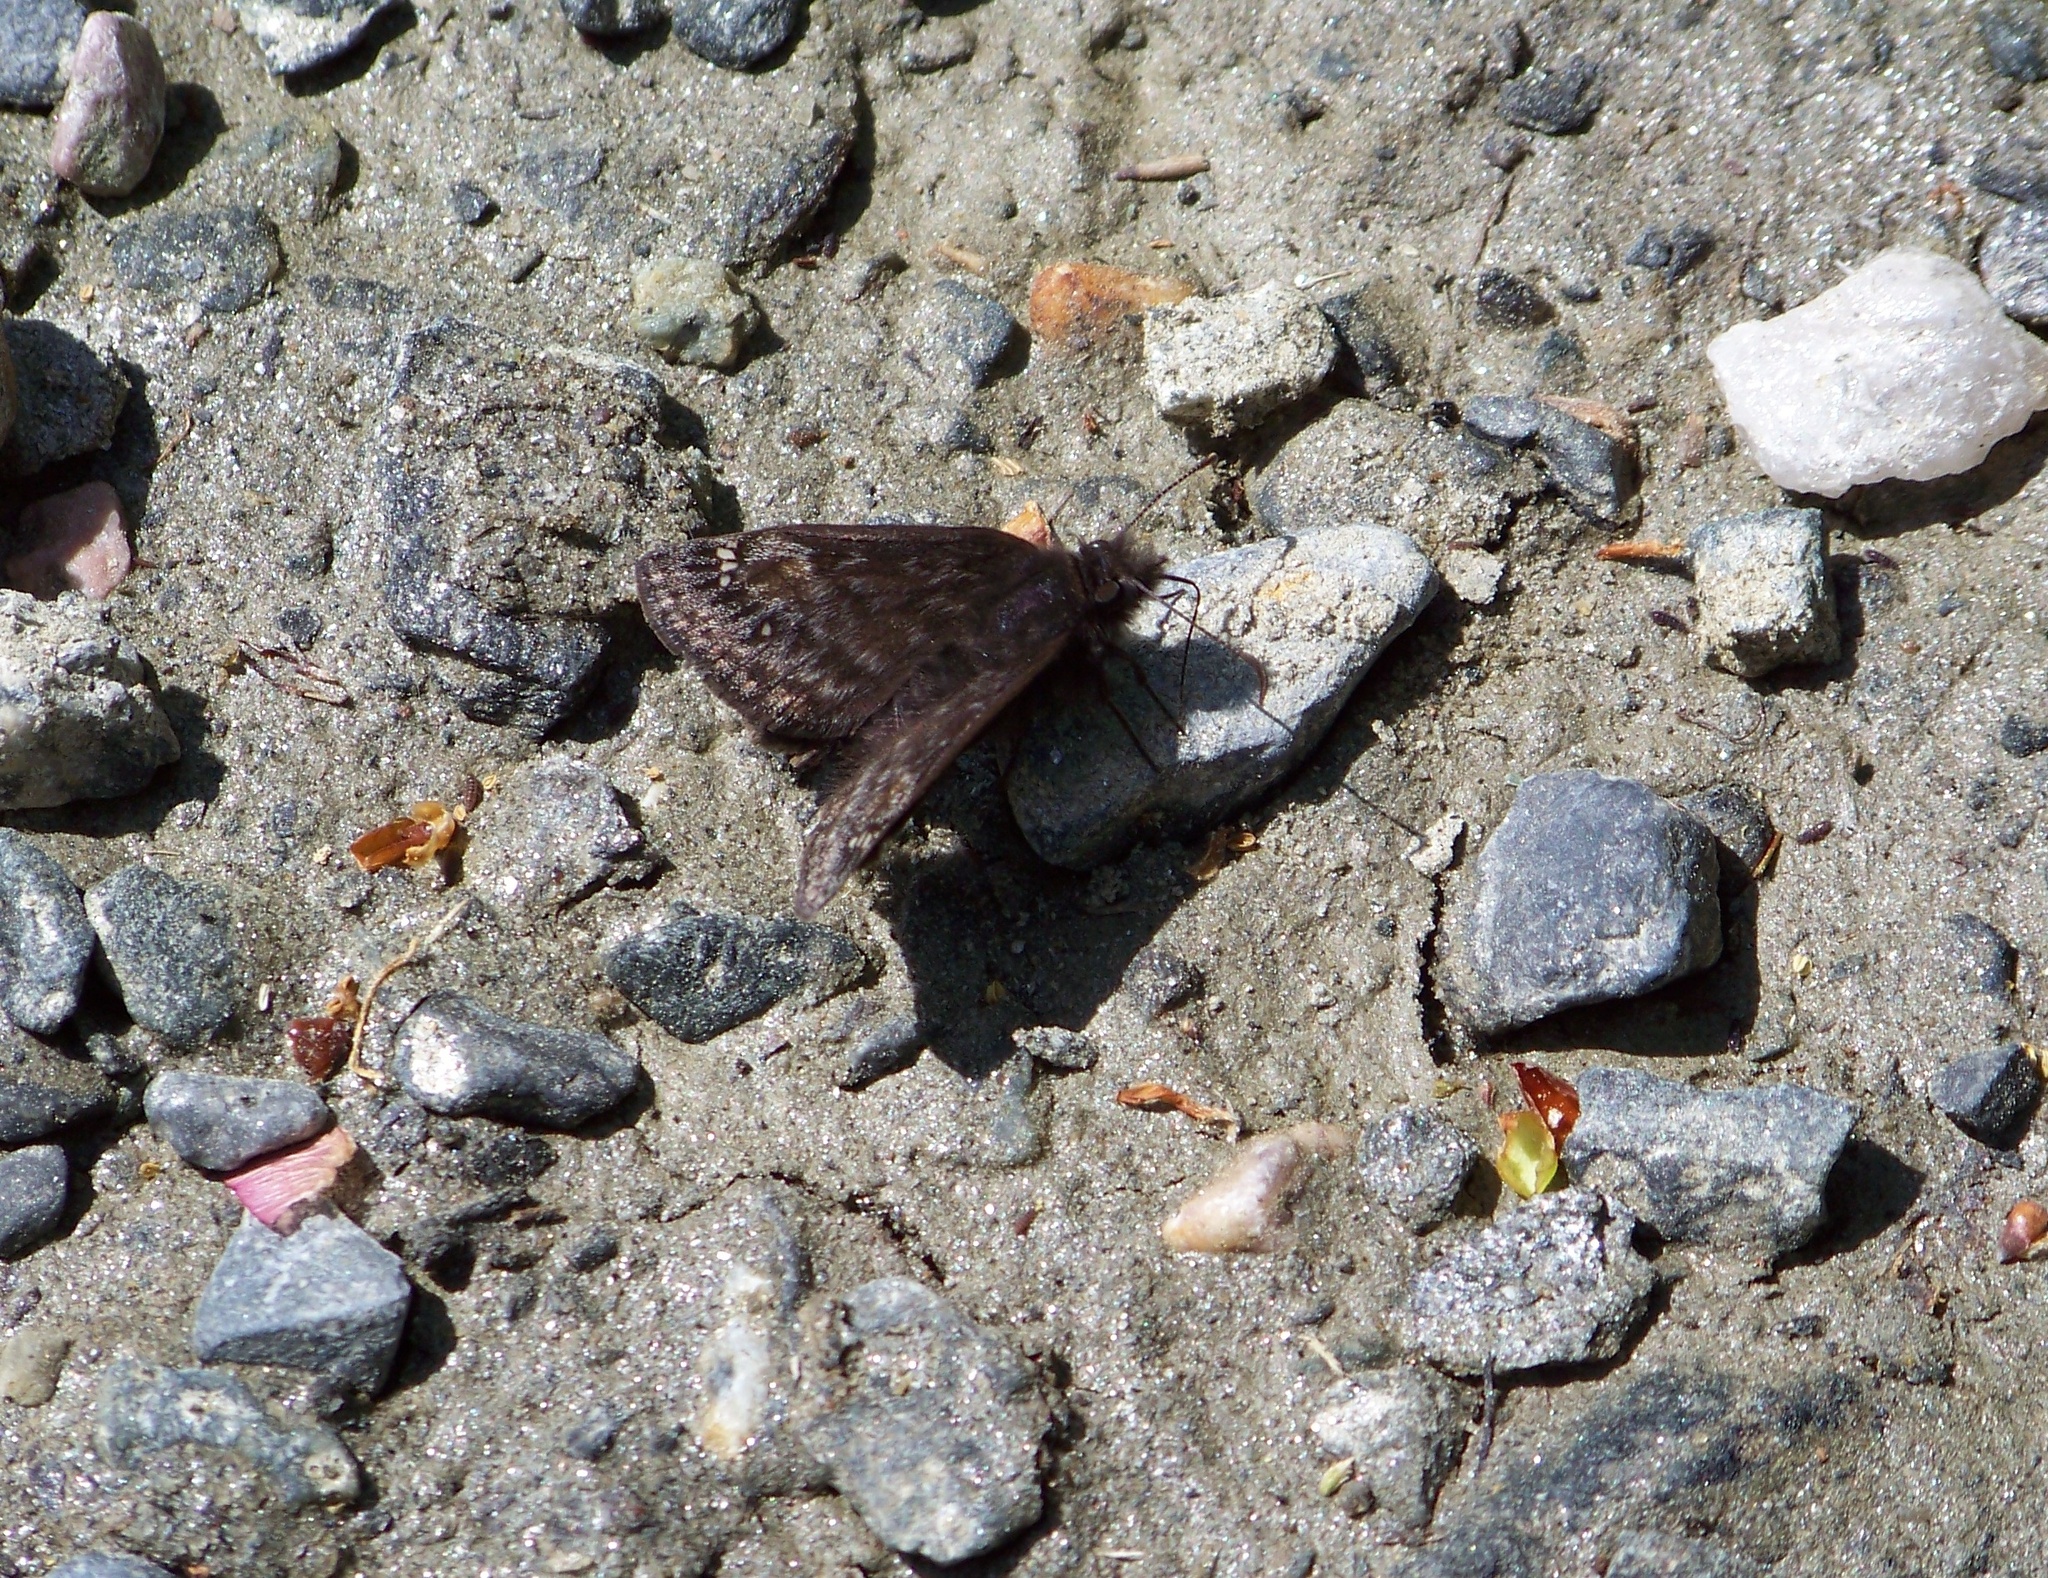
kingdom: Animalia
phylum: Arthropoda
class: Insecta
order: Lepidoptera
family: Hesperiidae
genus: Erynnis
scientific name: Erynnis baptisiae
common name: Wild indigo duskywing
